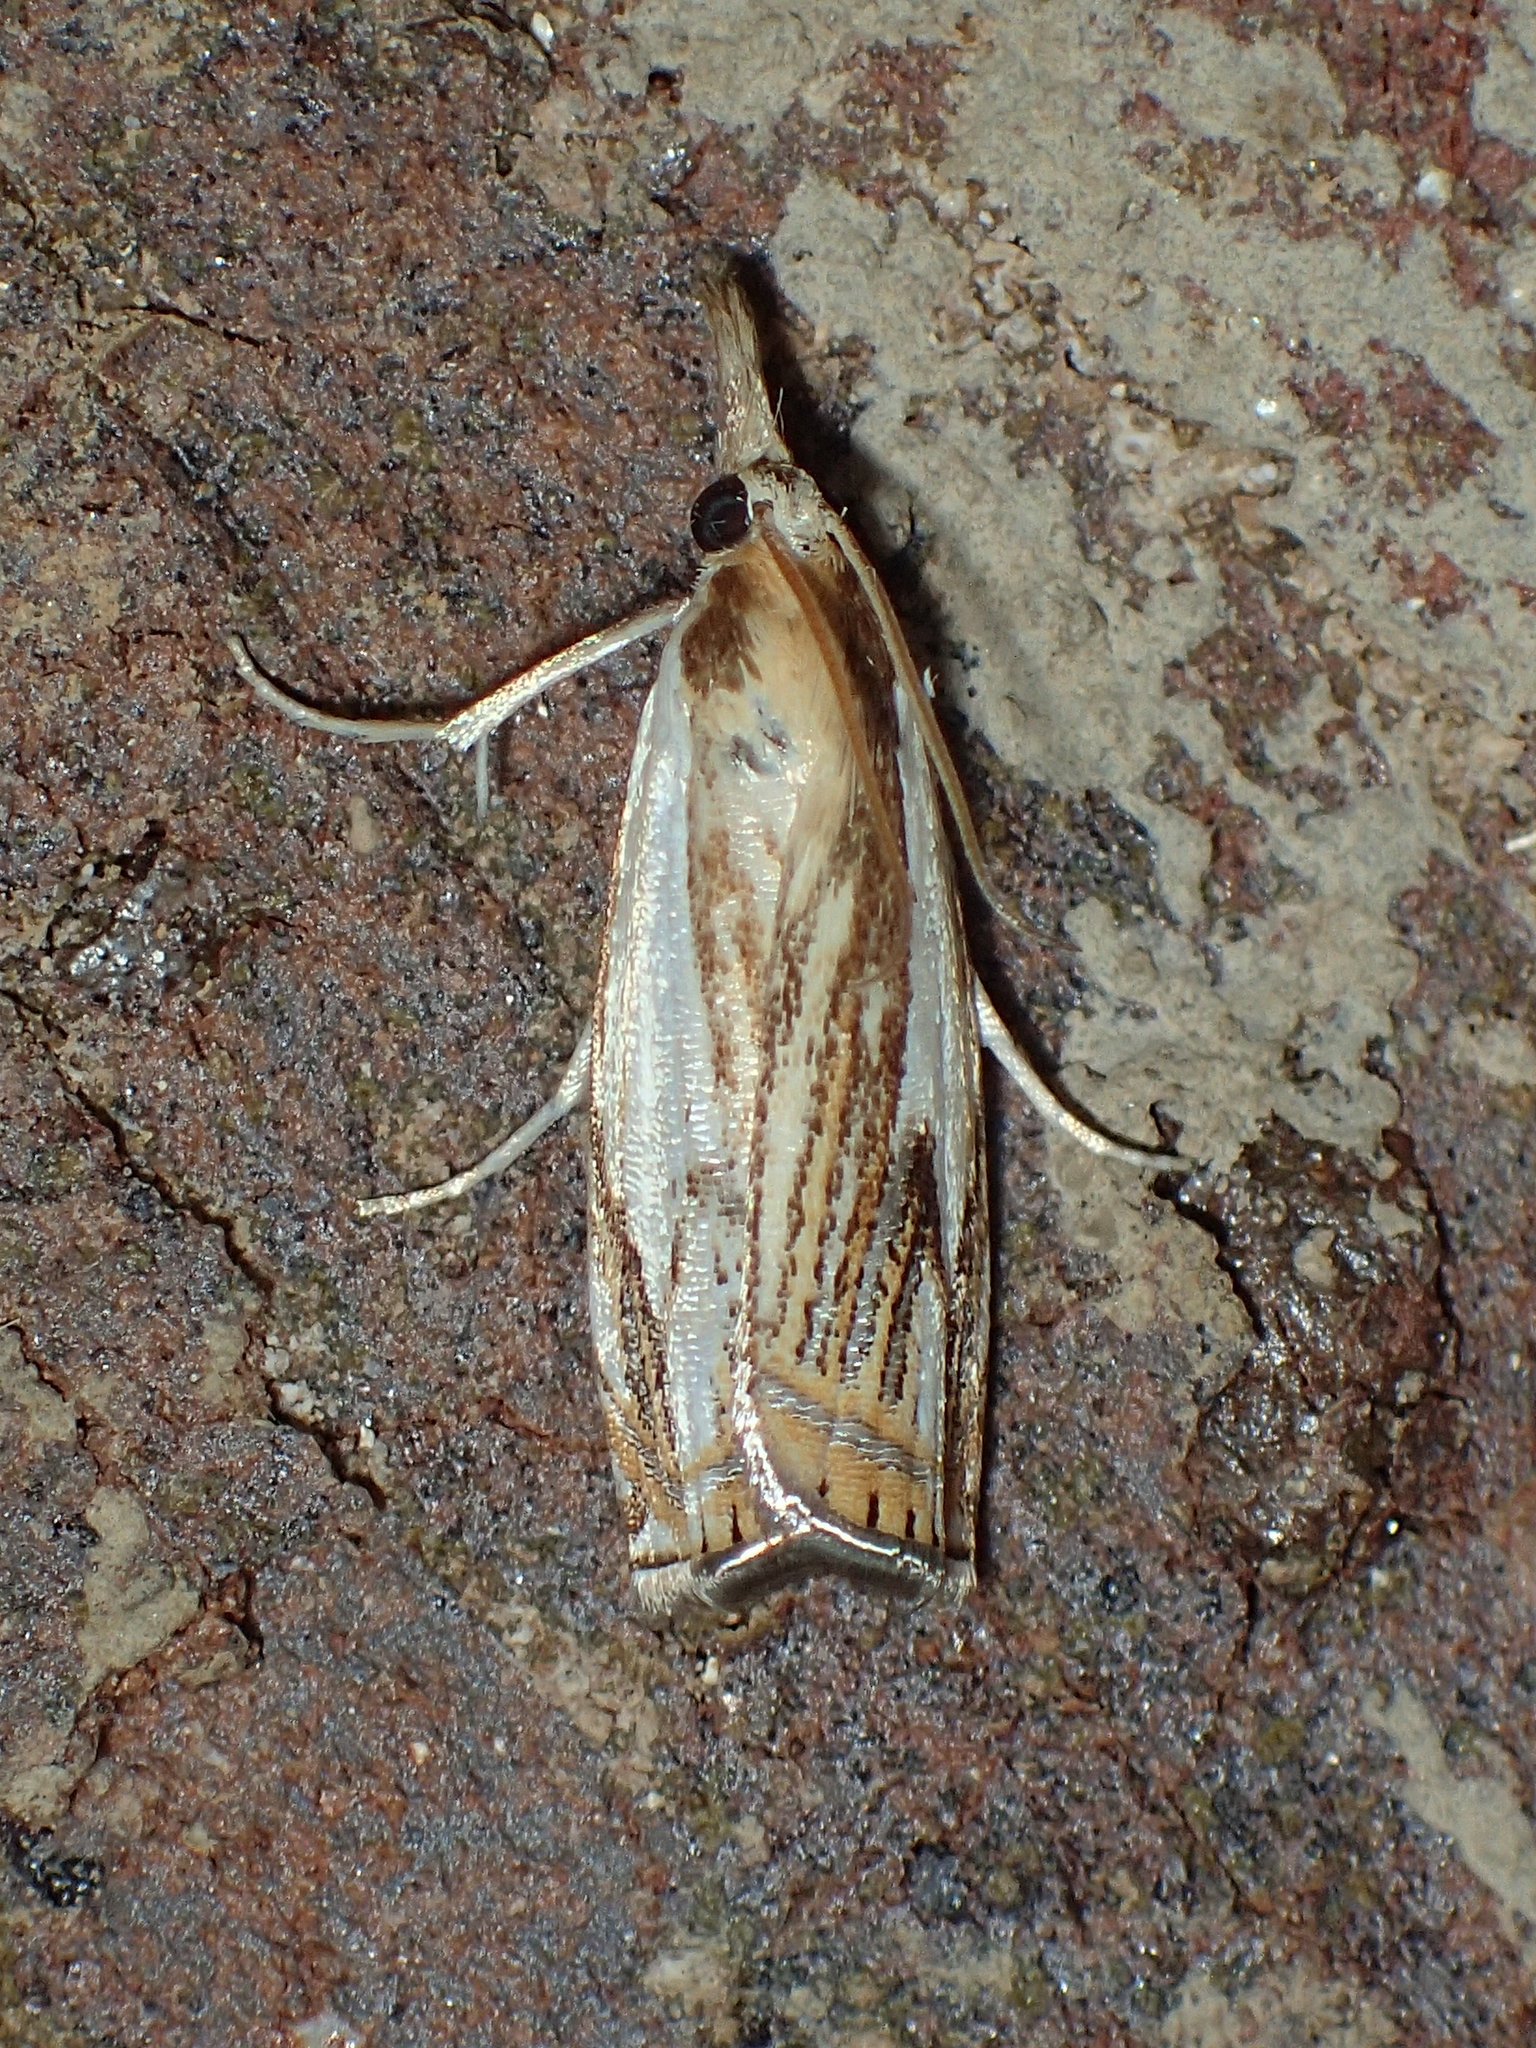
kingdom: Animalia
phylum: Arthropoda
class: Insecta
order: Lepidoptera
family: Crambidae
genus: Crambus
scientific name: Crambus saltuellus
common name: Pasture grass-veneer
